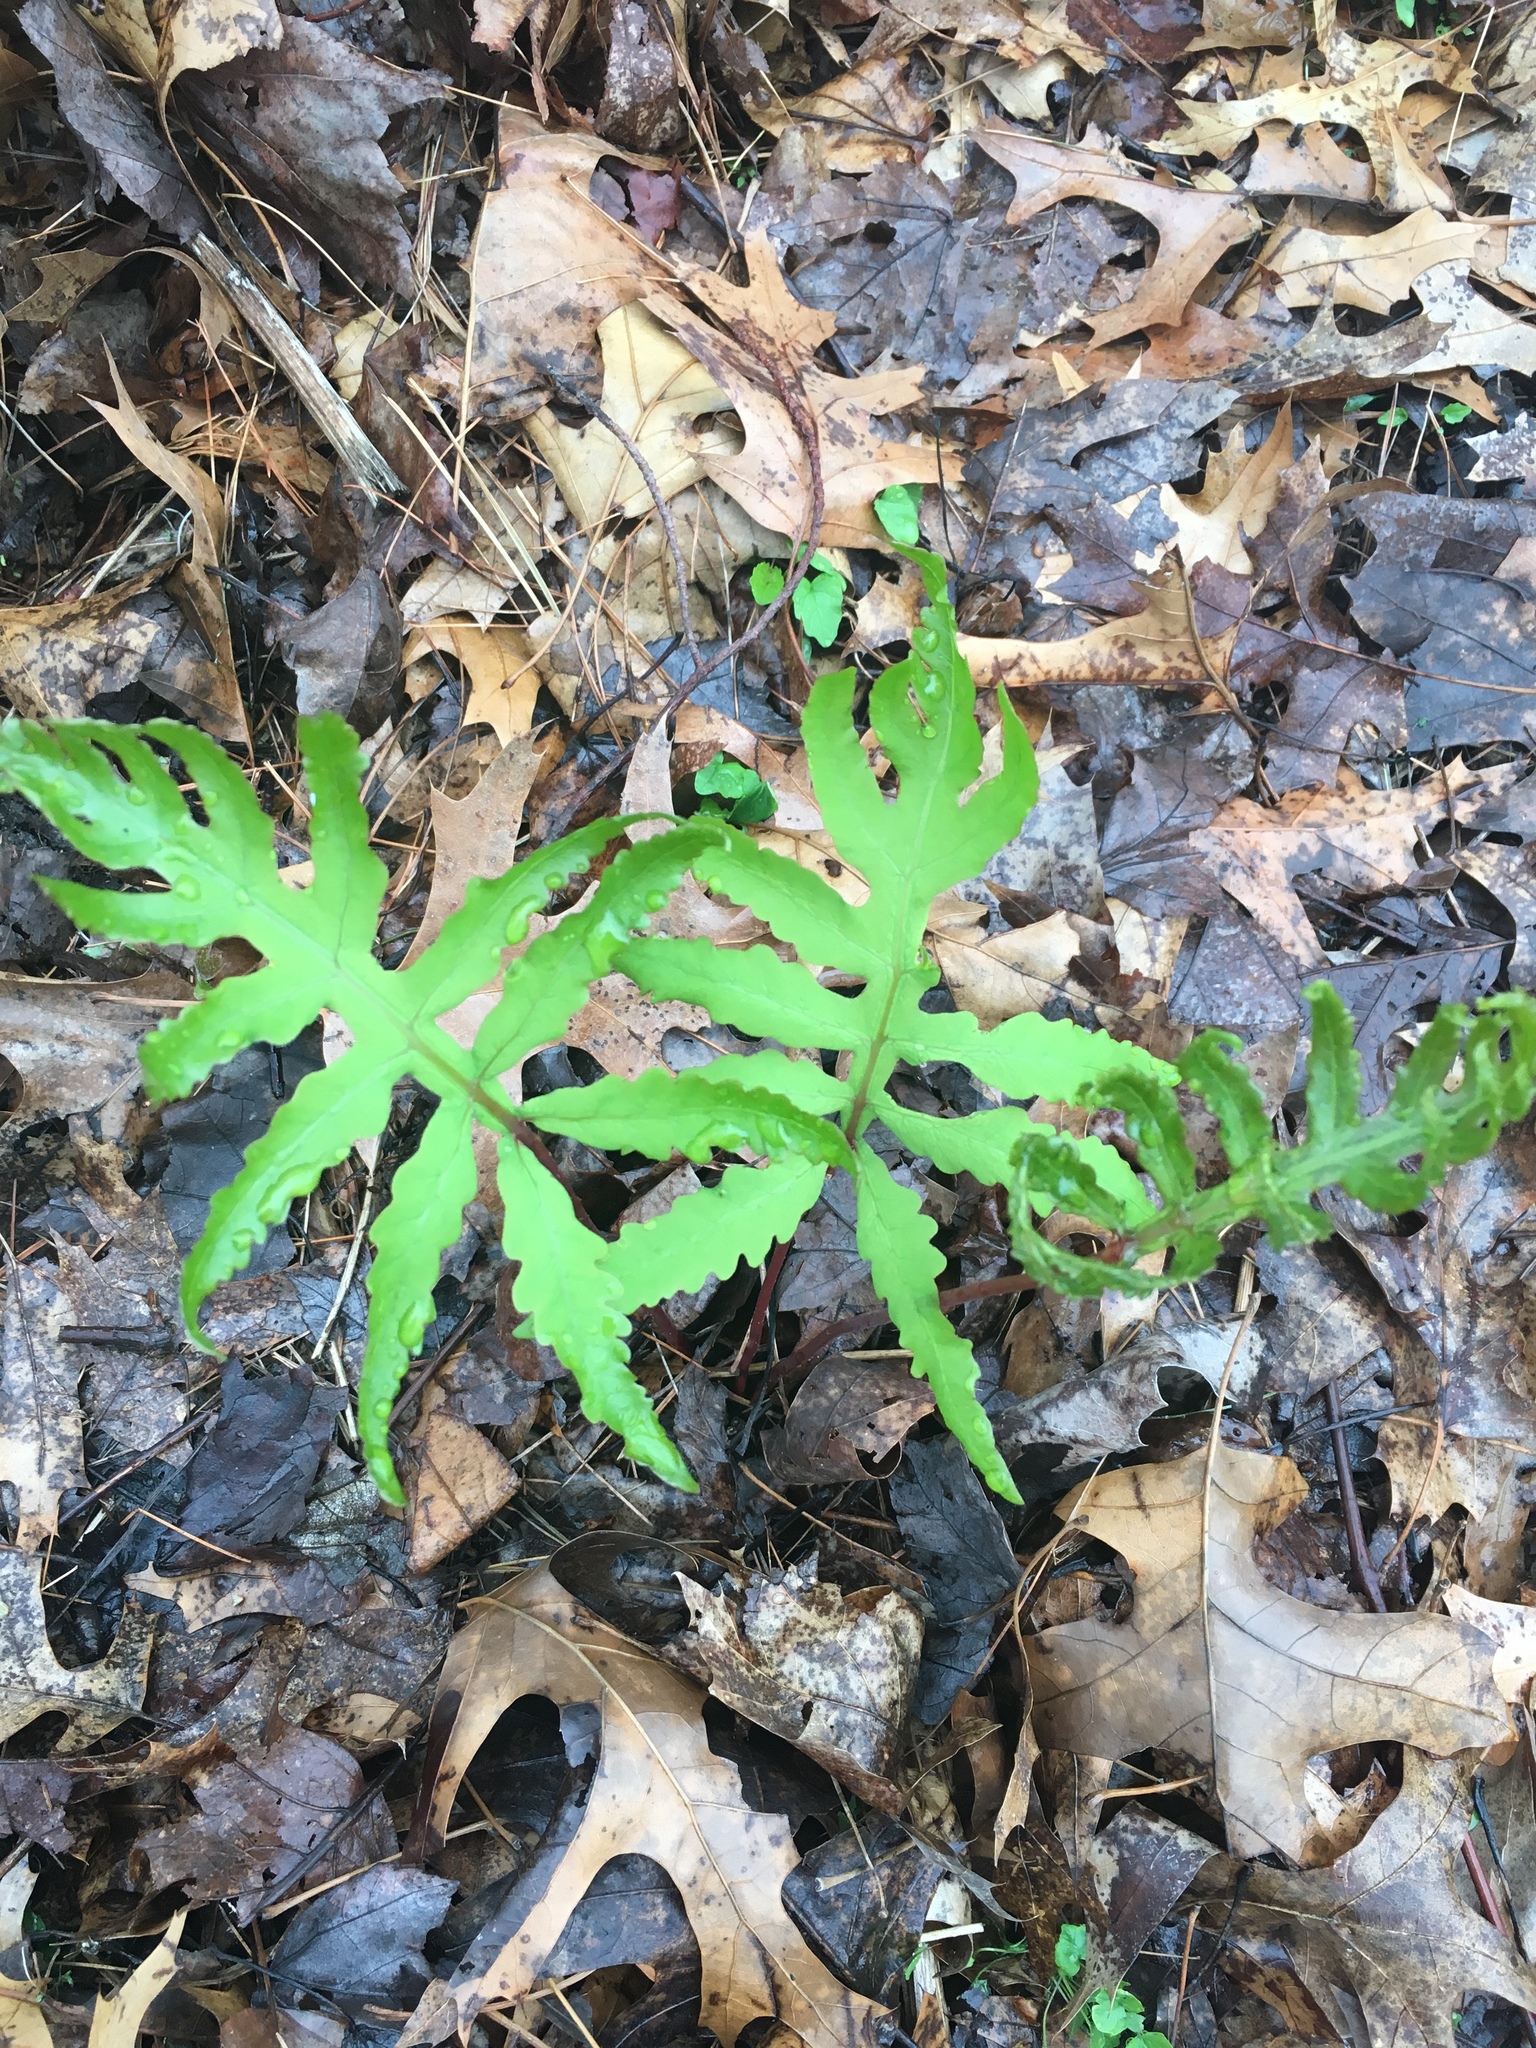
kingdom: Plantae
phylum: Tracheophyta
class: Polypodiopsida
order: Polypodiales
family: Onocleaceae
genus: Onoclea
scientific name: Onoclea sensibilis
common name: Sensitive fern
